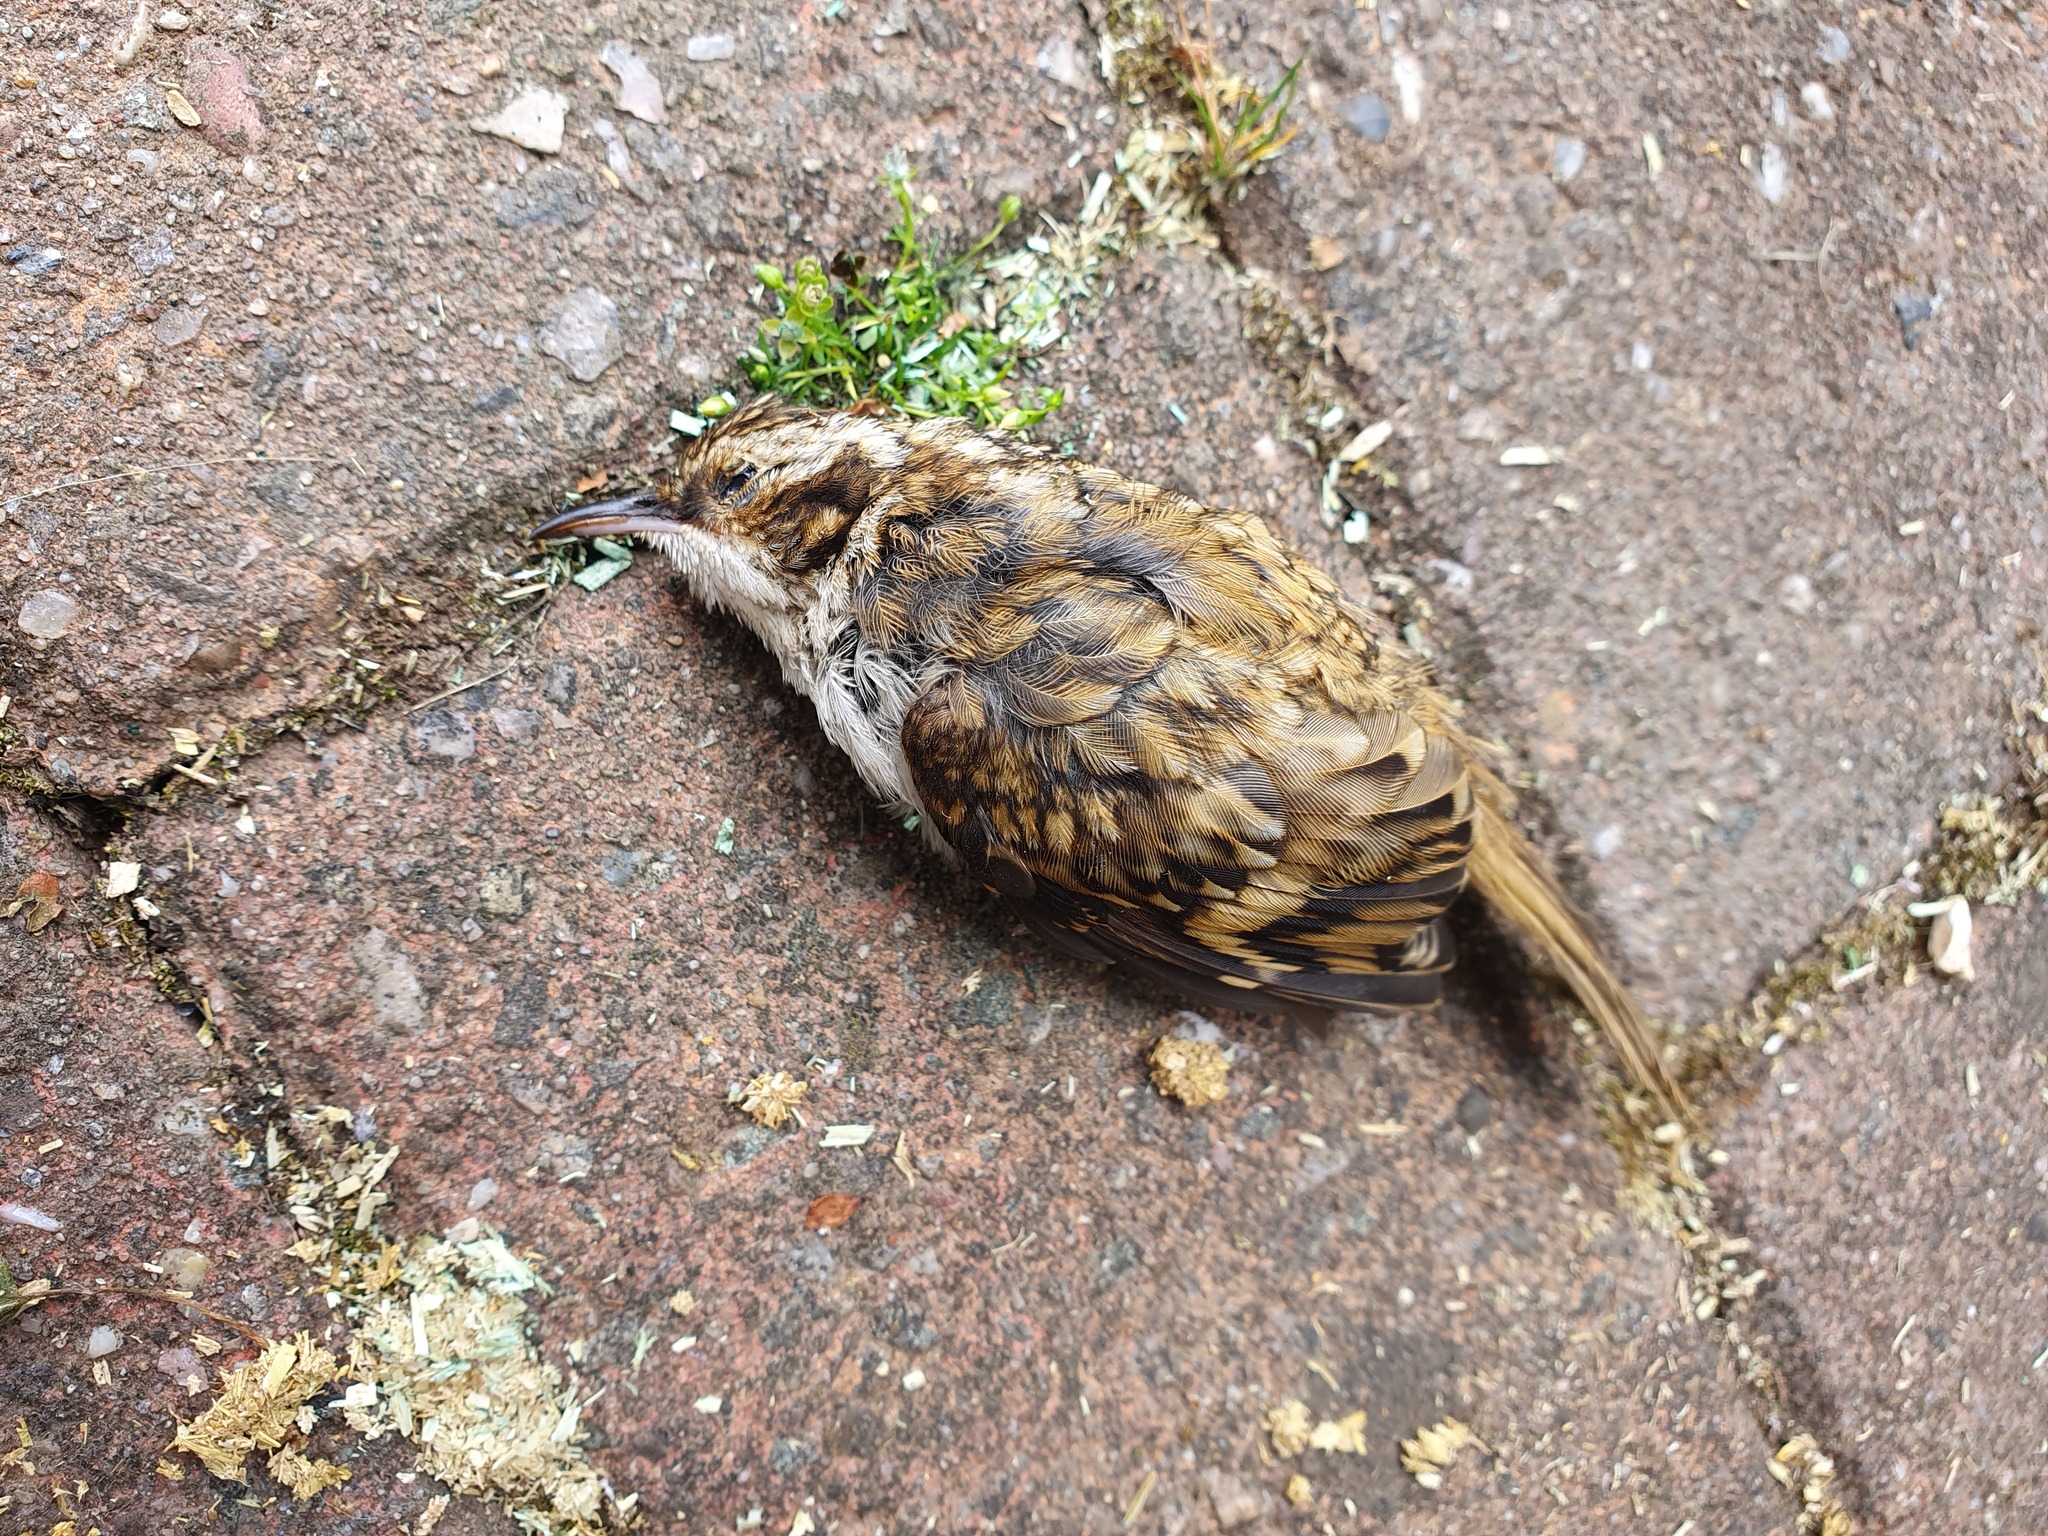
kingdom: Animalia
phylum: Chordata
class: Aves
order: Passeriformes
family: Certhiidae
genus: Certhia
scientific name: Certhia familiaris
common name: Eurasian treecreeper
